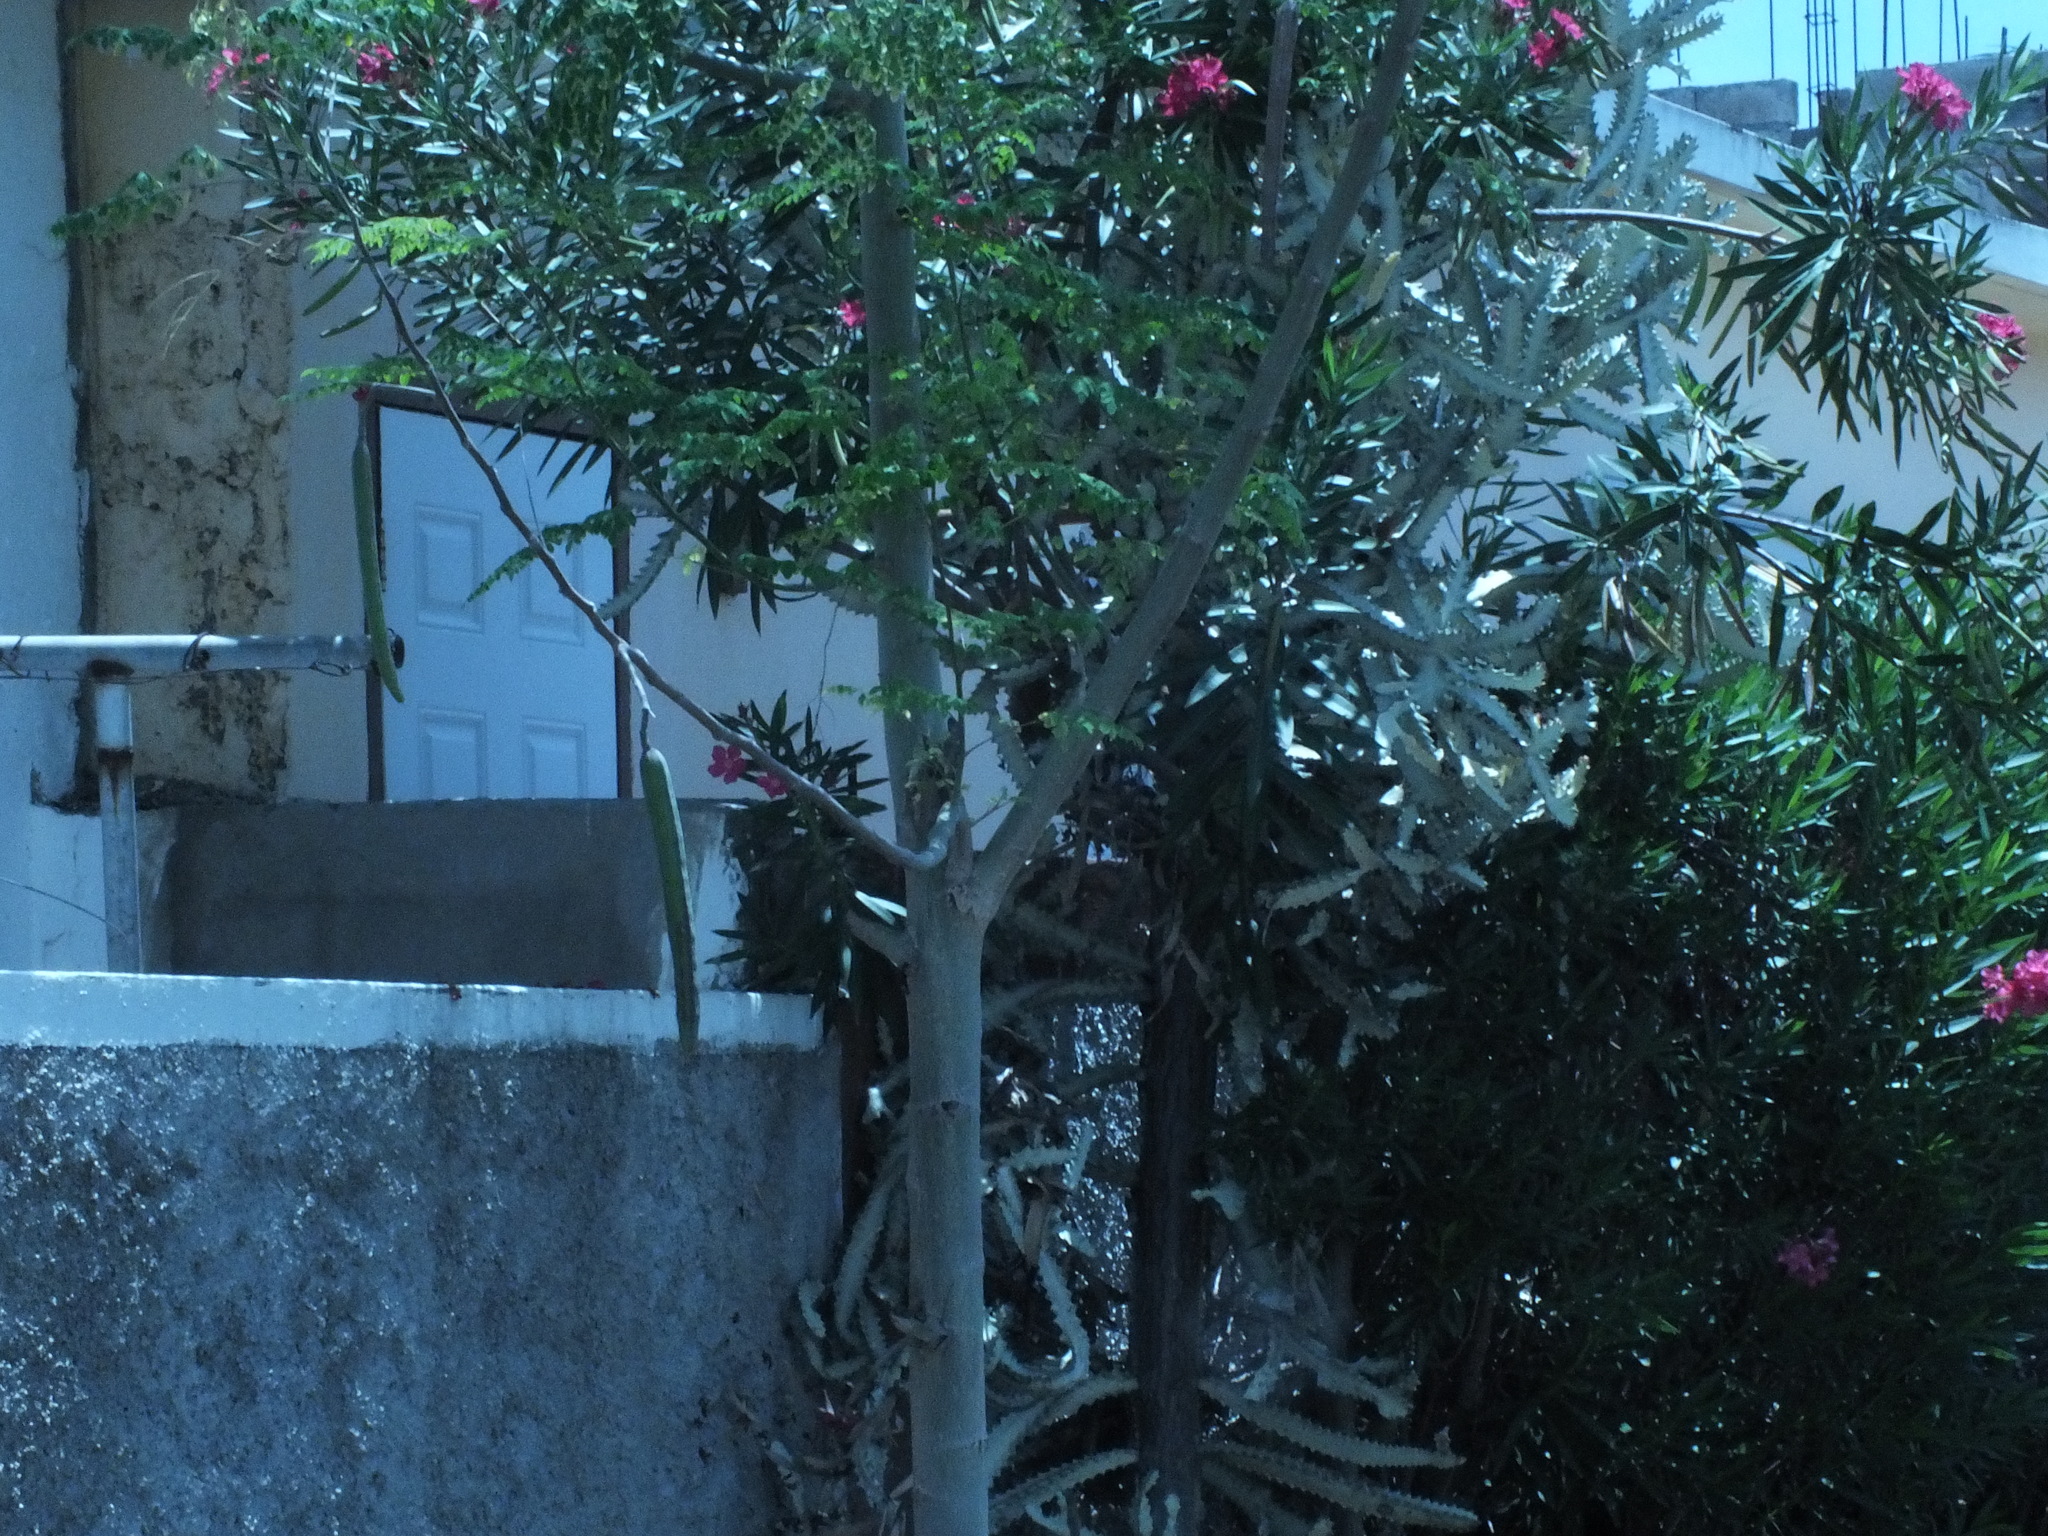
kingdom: Plantae
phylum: Tracheophyta
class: Magnoliopsida
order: Brassicales
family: Moringaceae
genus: Moringa
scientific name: Moringa oleifera
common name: Horseradish-tree
